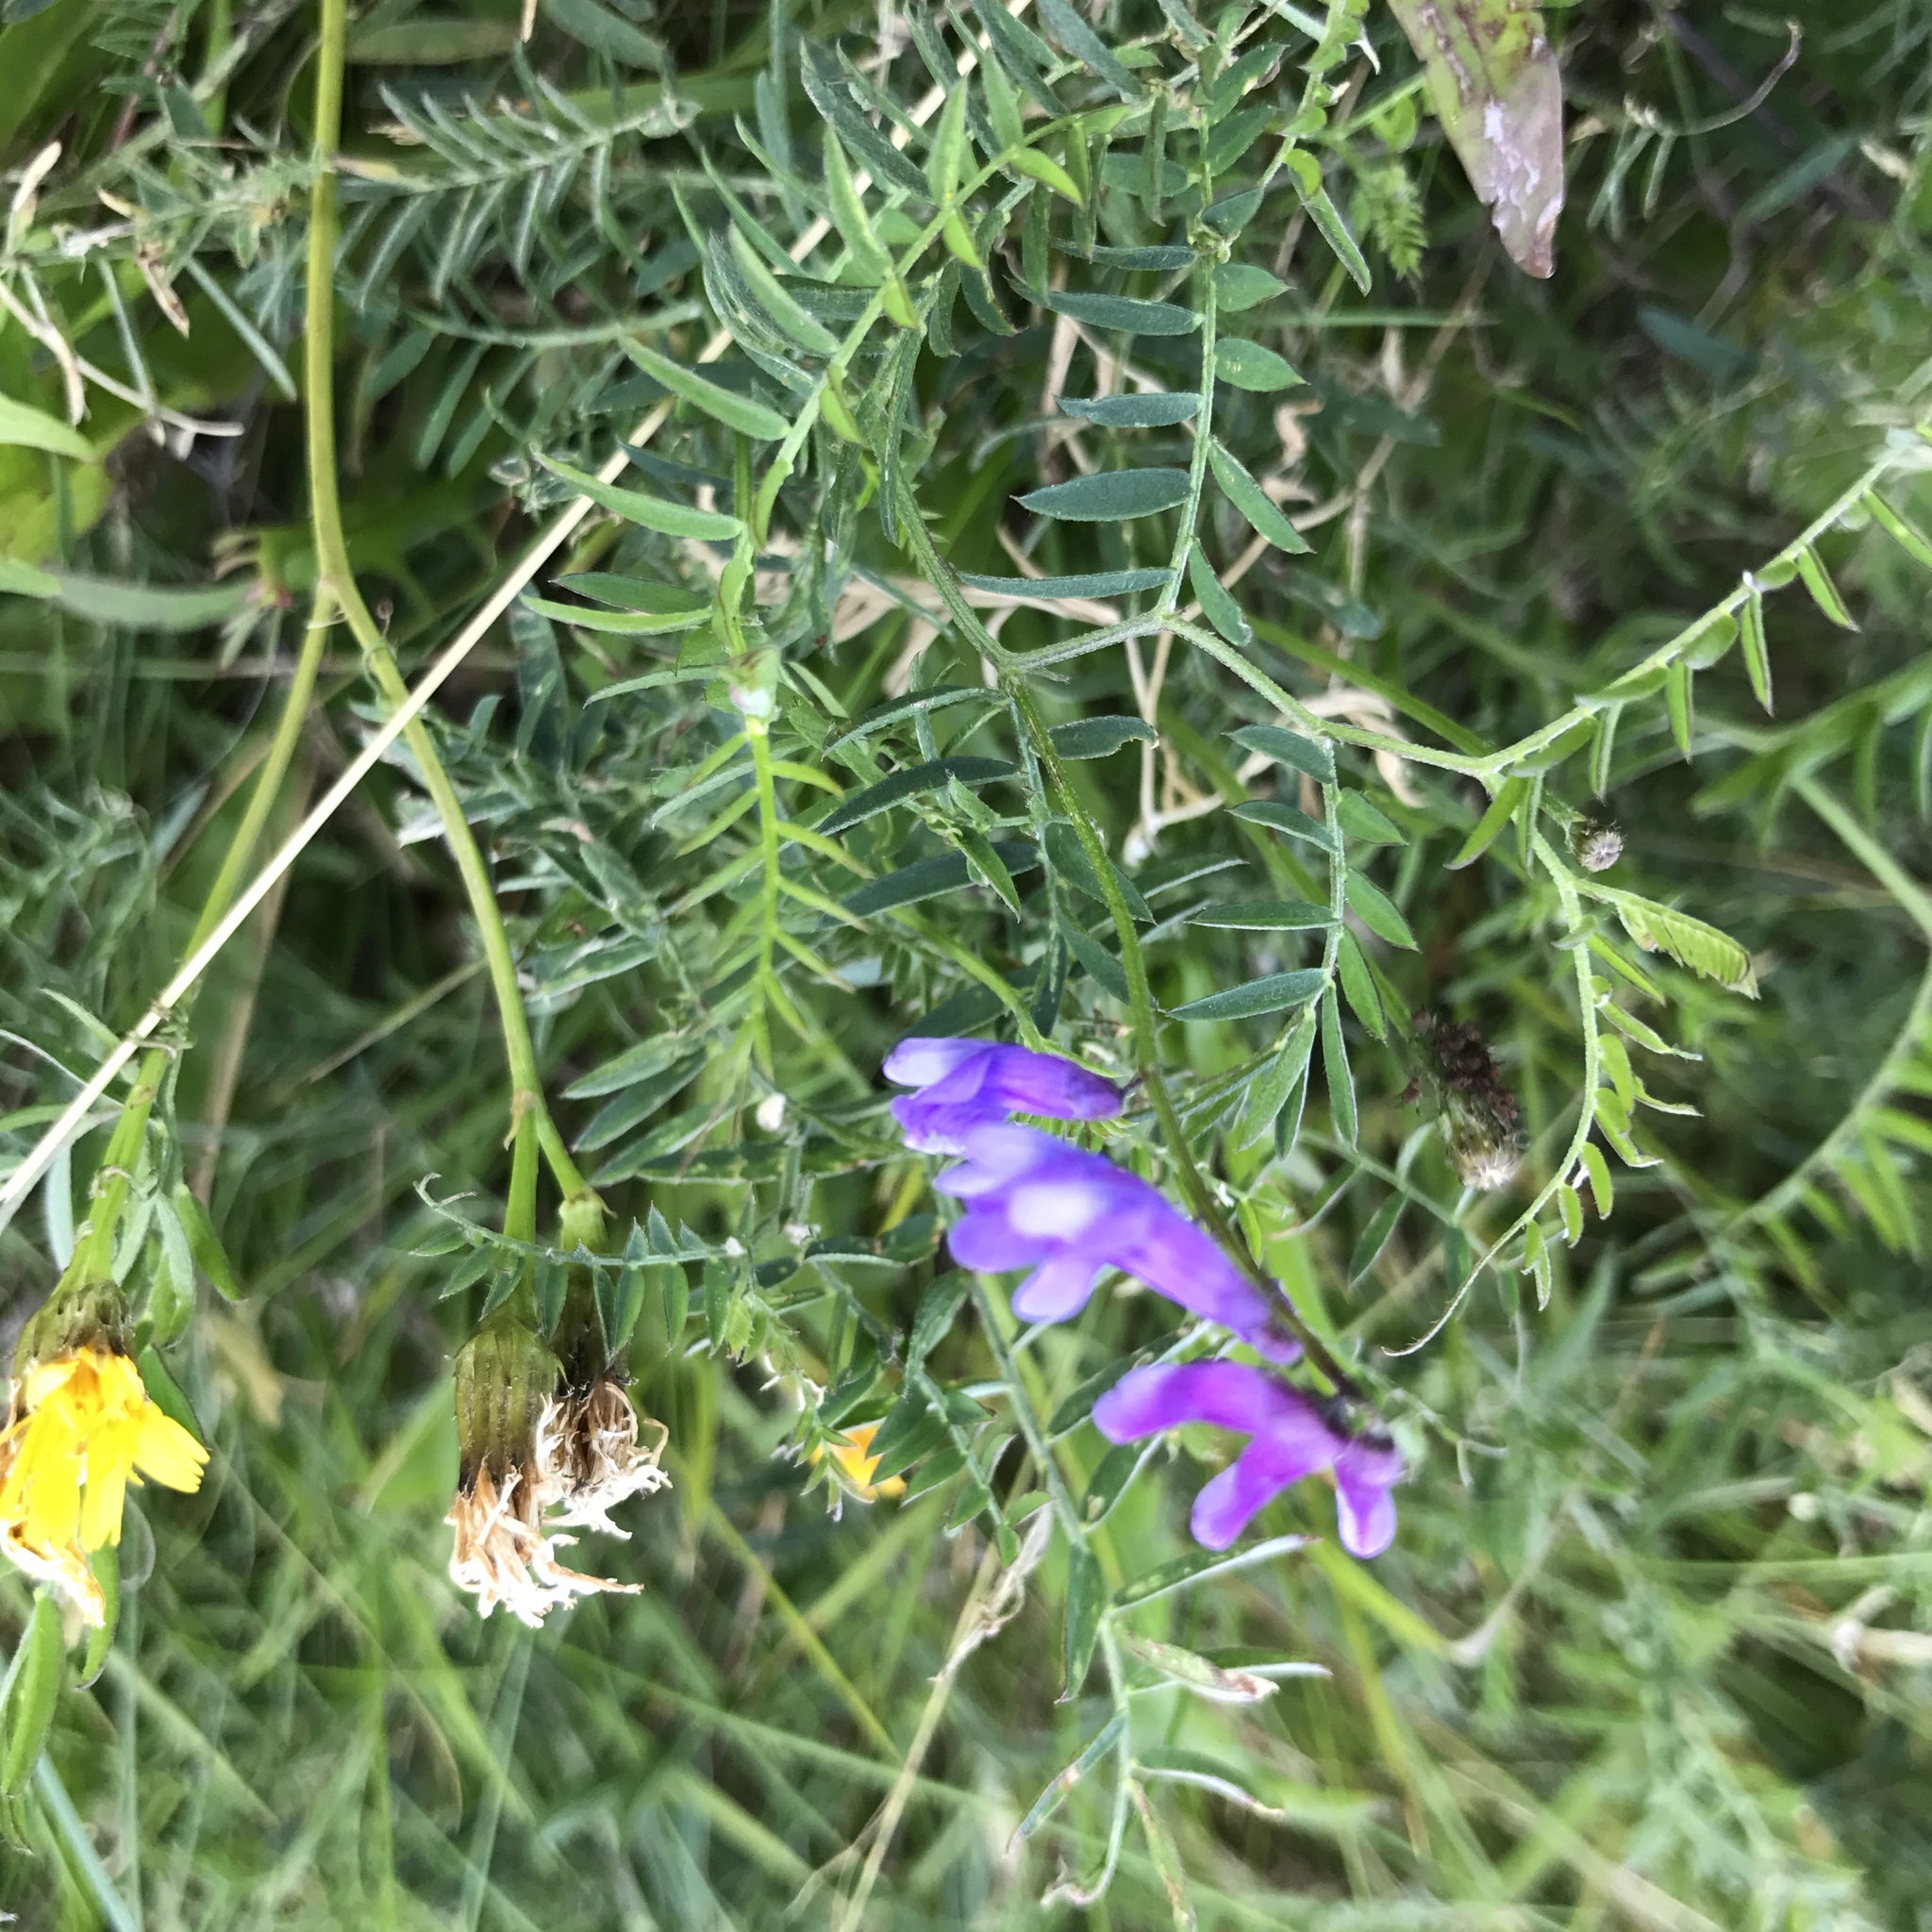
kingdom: Plantae
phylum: Tracheophyta
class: Magnoliopsida
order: Fabales
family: Fabaceae
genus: Vicia
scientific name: Vicia cracca
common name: Bird vetch
